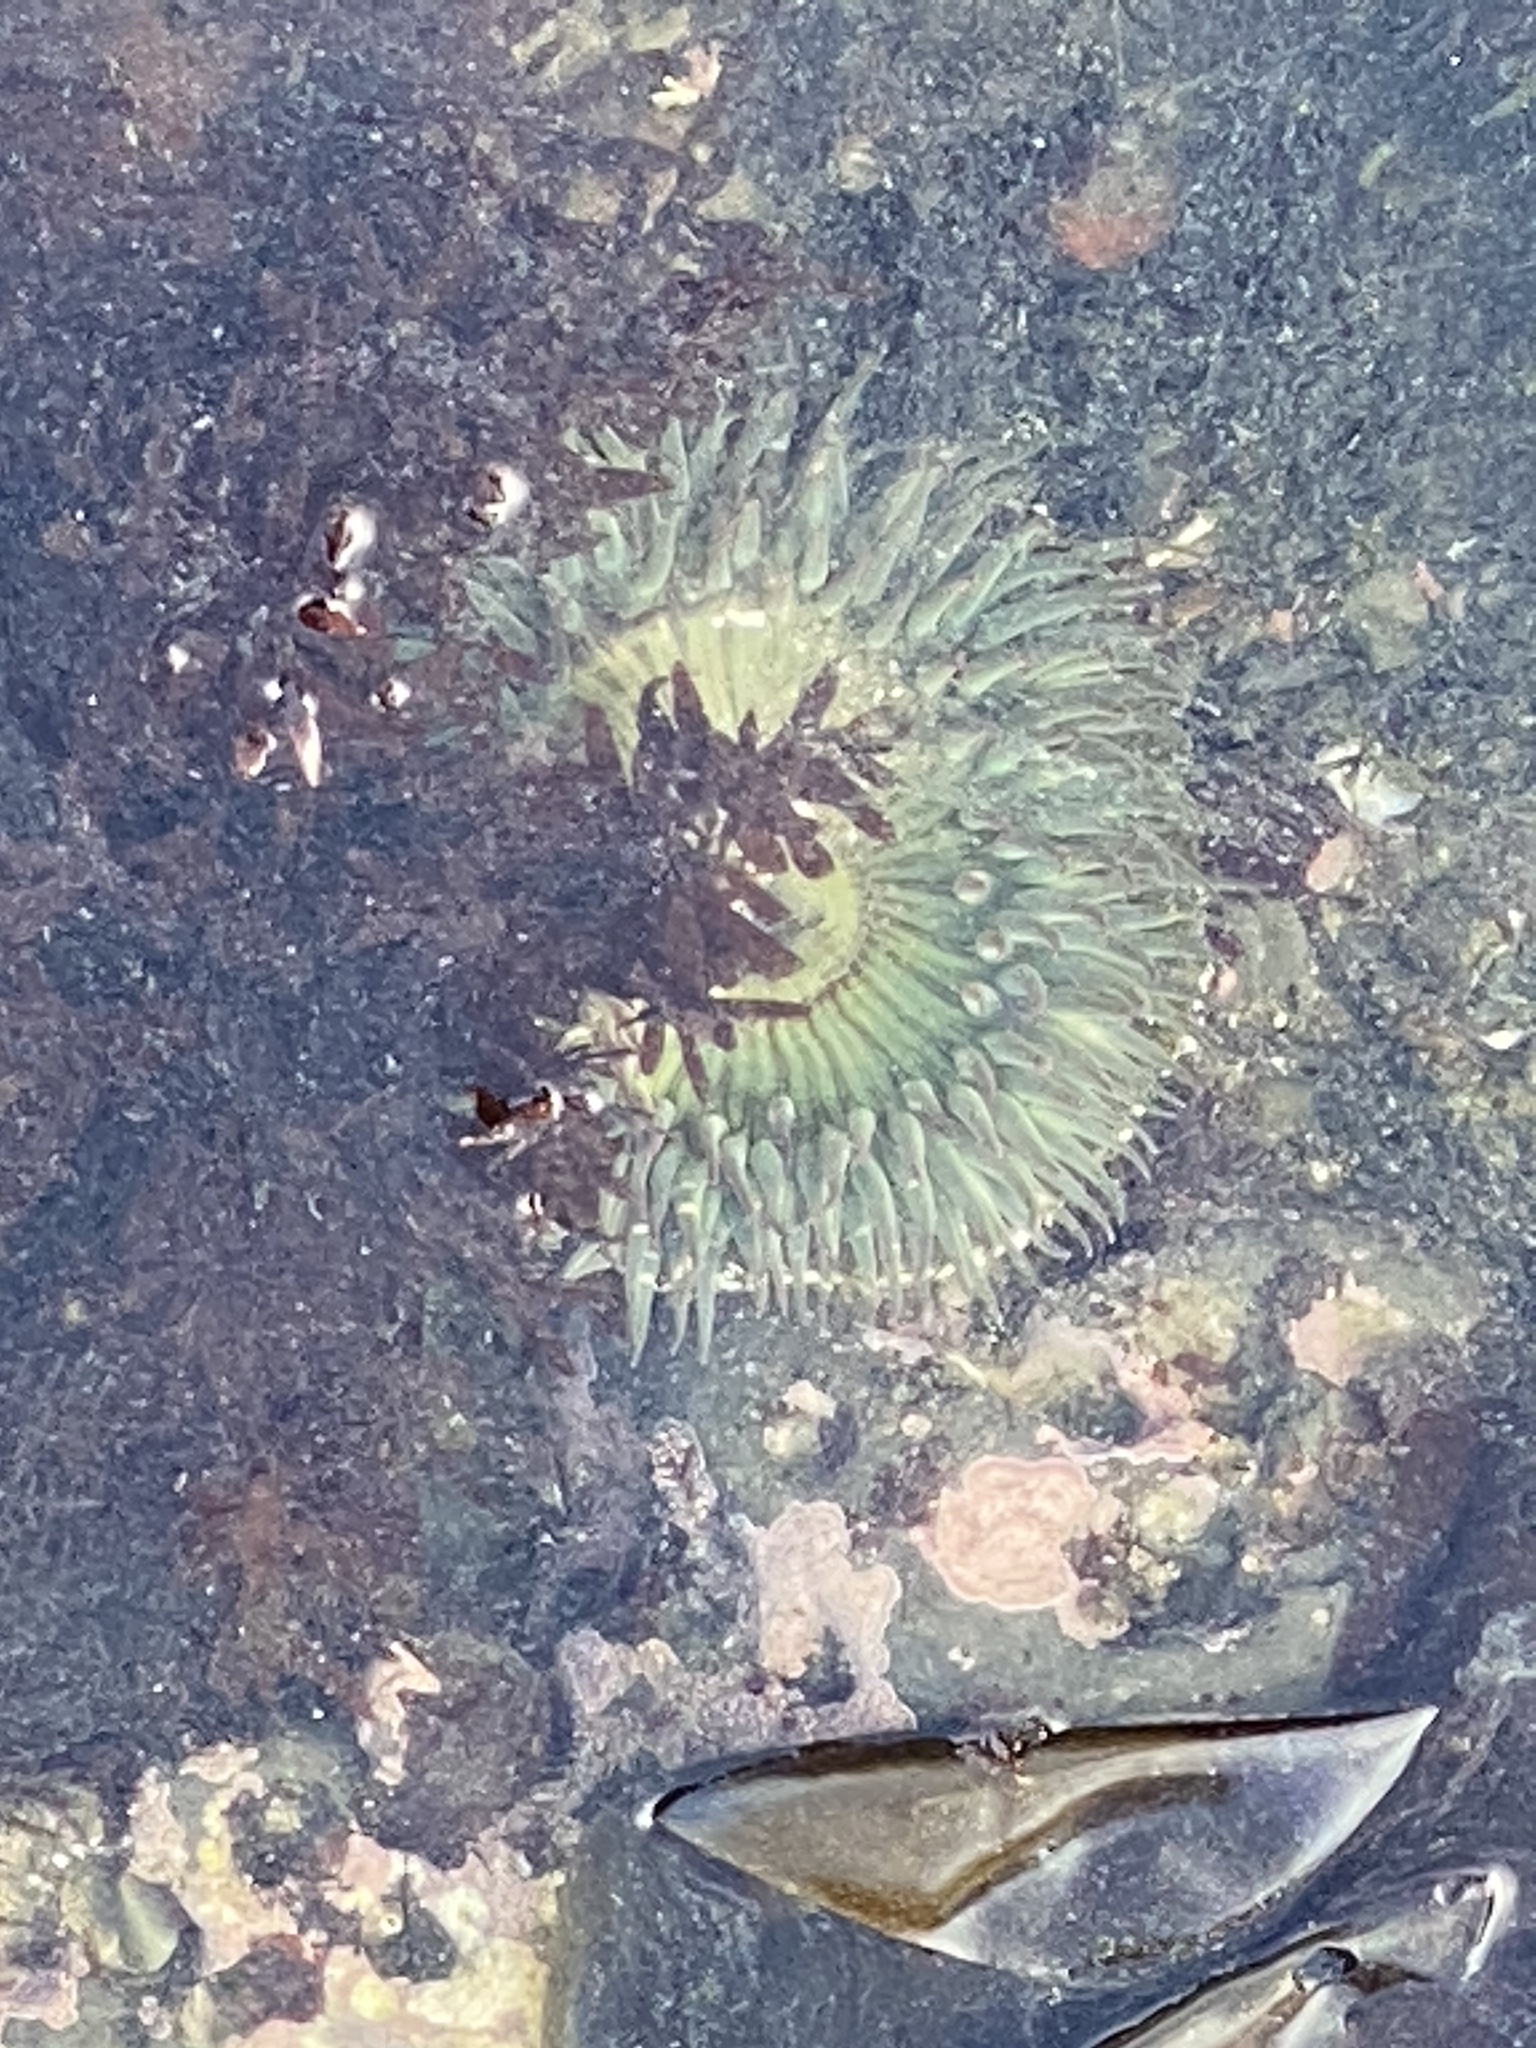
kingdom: Animalia
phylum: Cnidaria
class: Anthozoa
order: Actiniaria
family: Actiniidae
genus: Anthopleura
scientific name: Anthopleura sola
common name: Sun anemone
